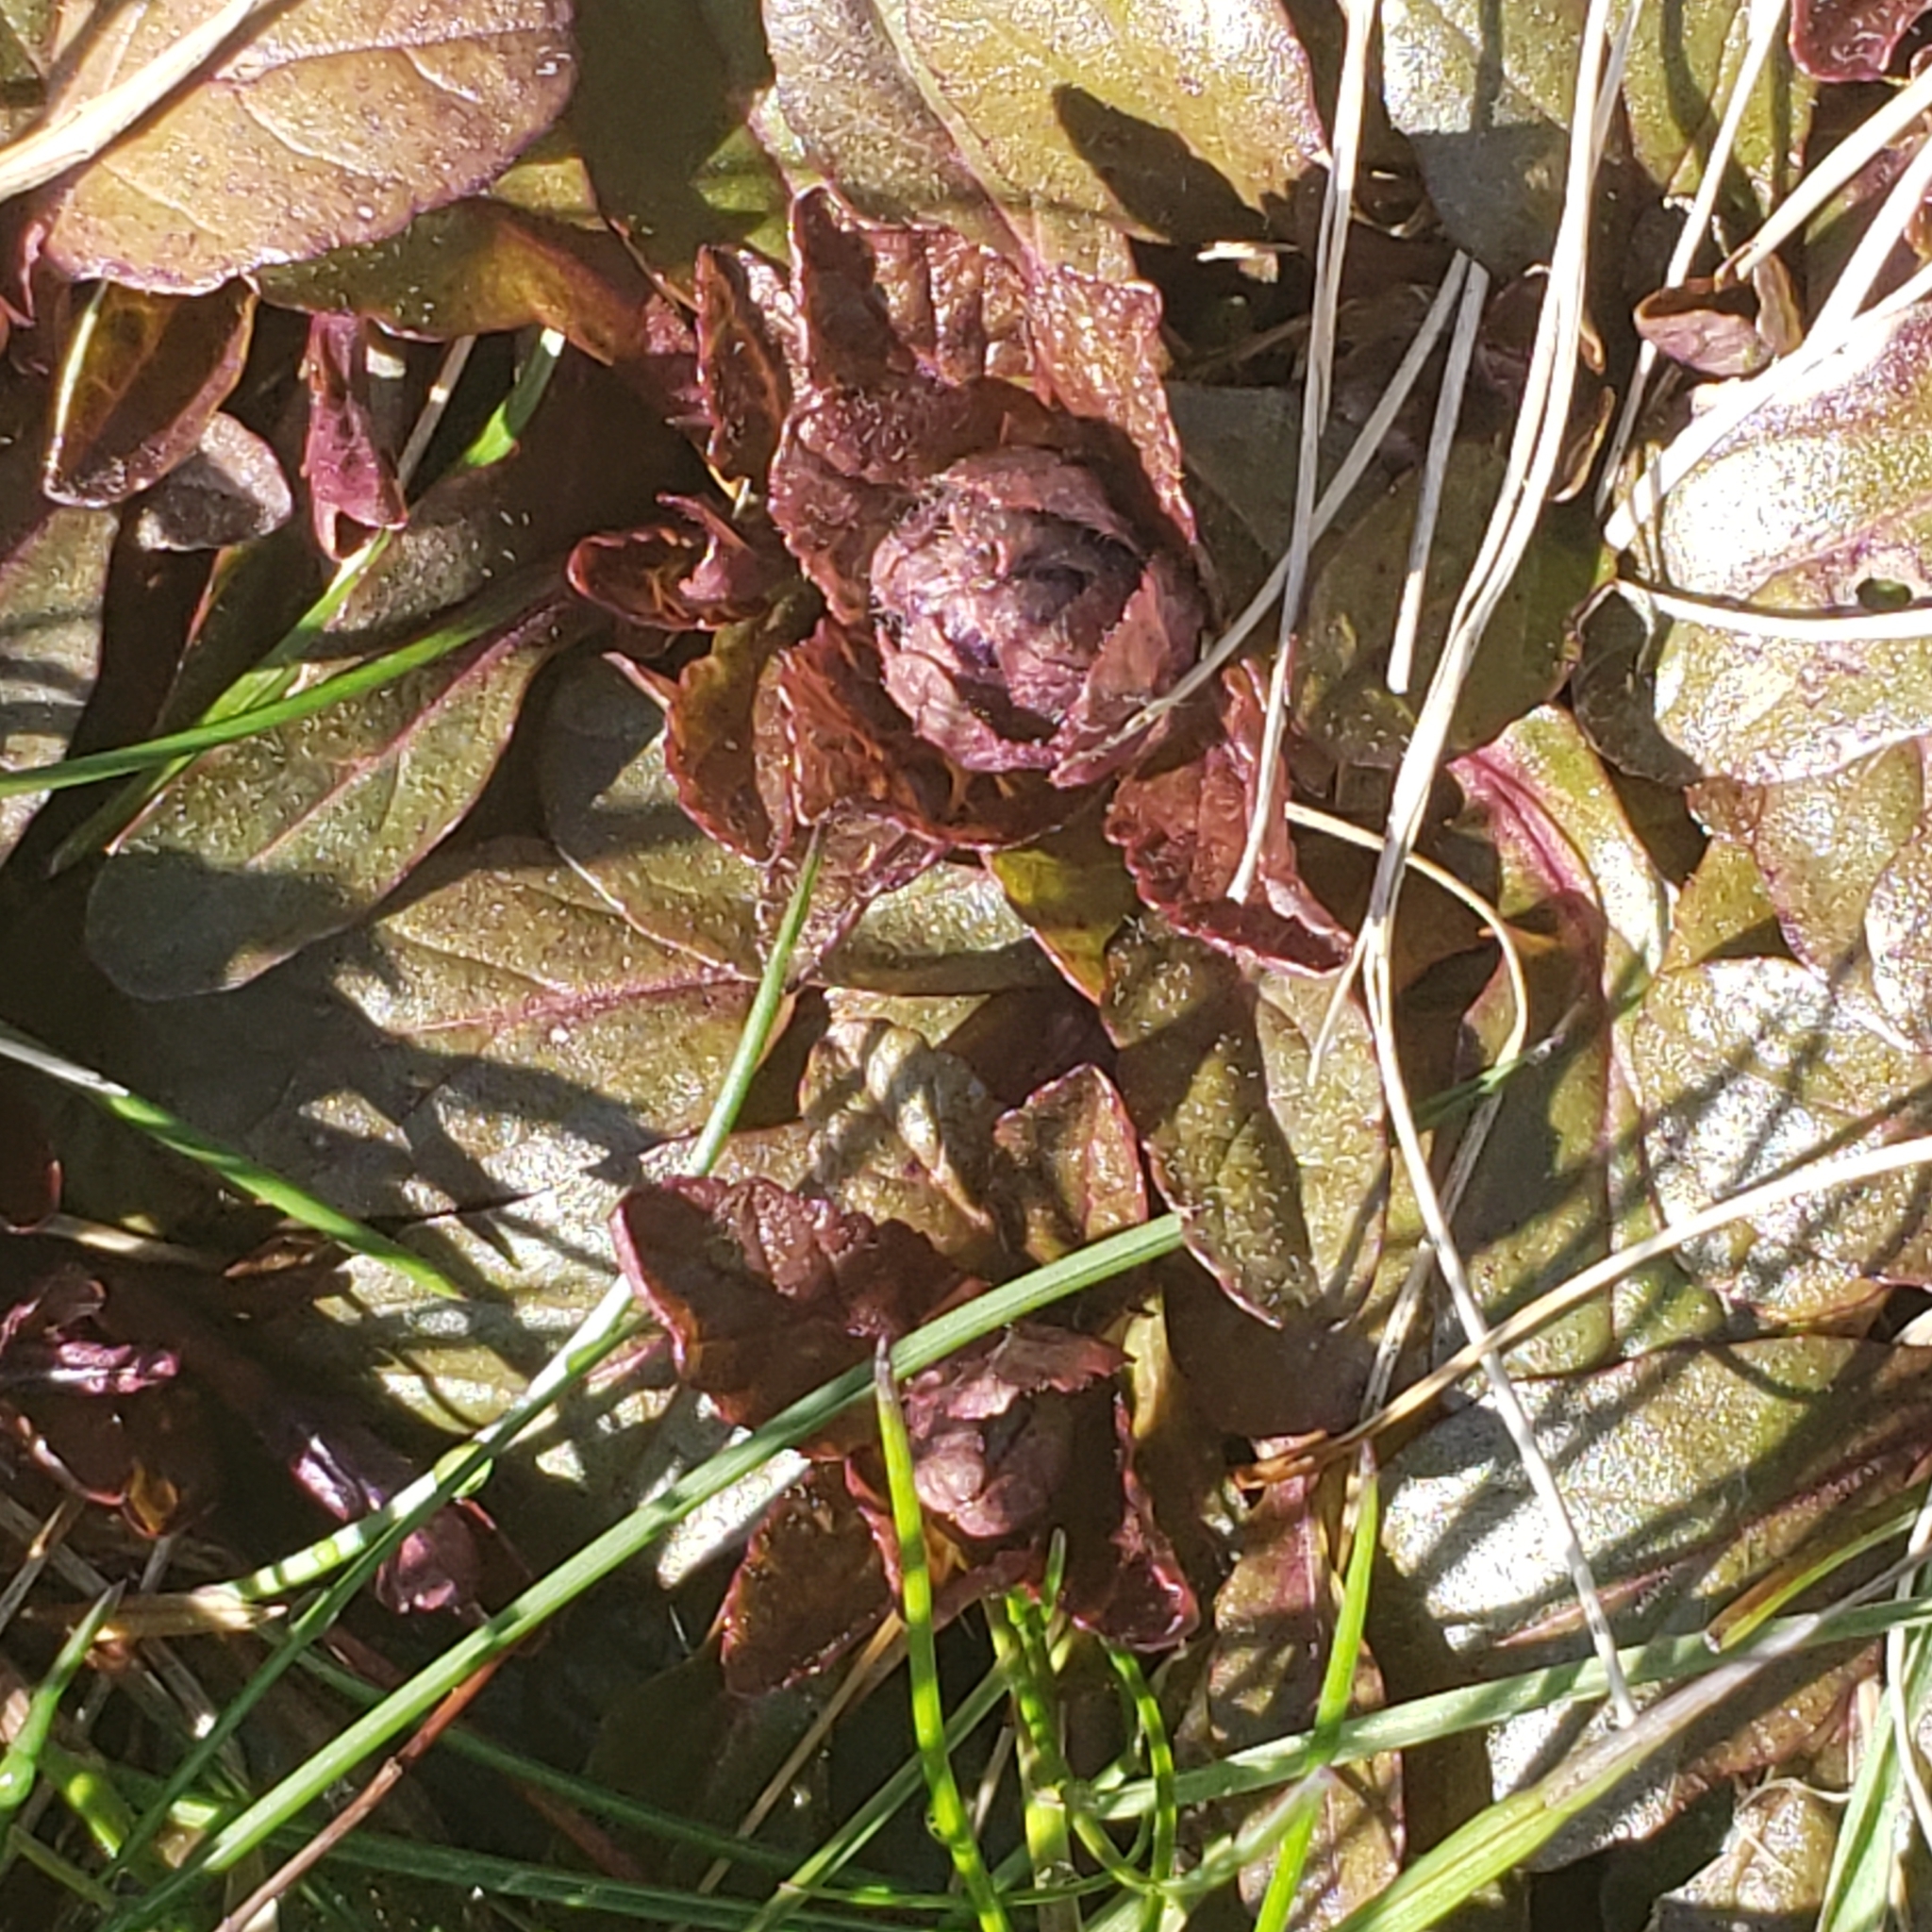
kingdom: Plantae
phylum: Tracheophyta
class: Magnoliopsida
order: Lamiales
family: Lamiaceae
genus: Ajuga
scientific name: Ajuga reptans
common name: Bugle
